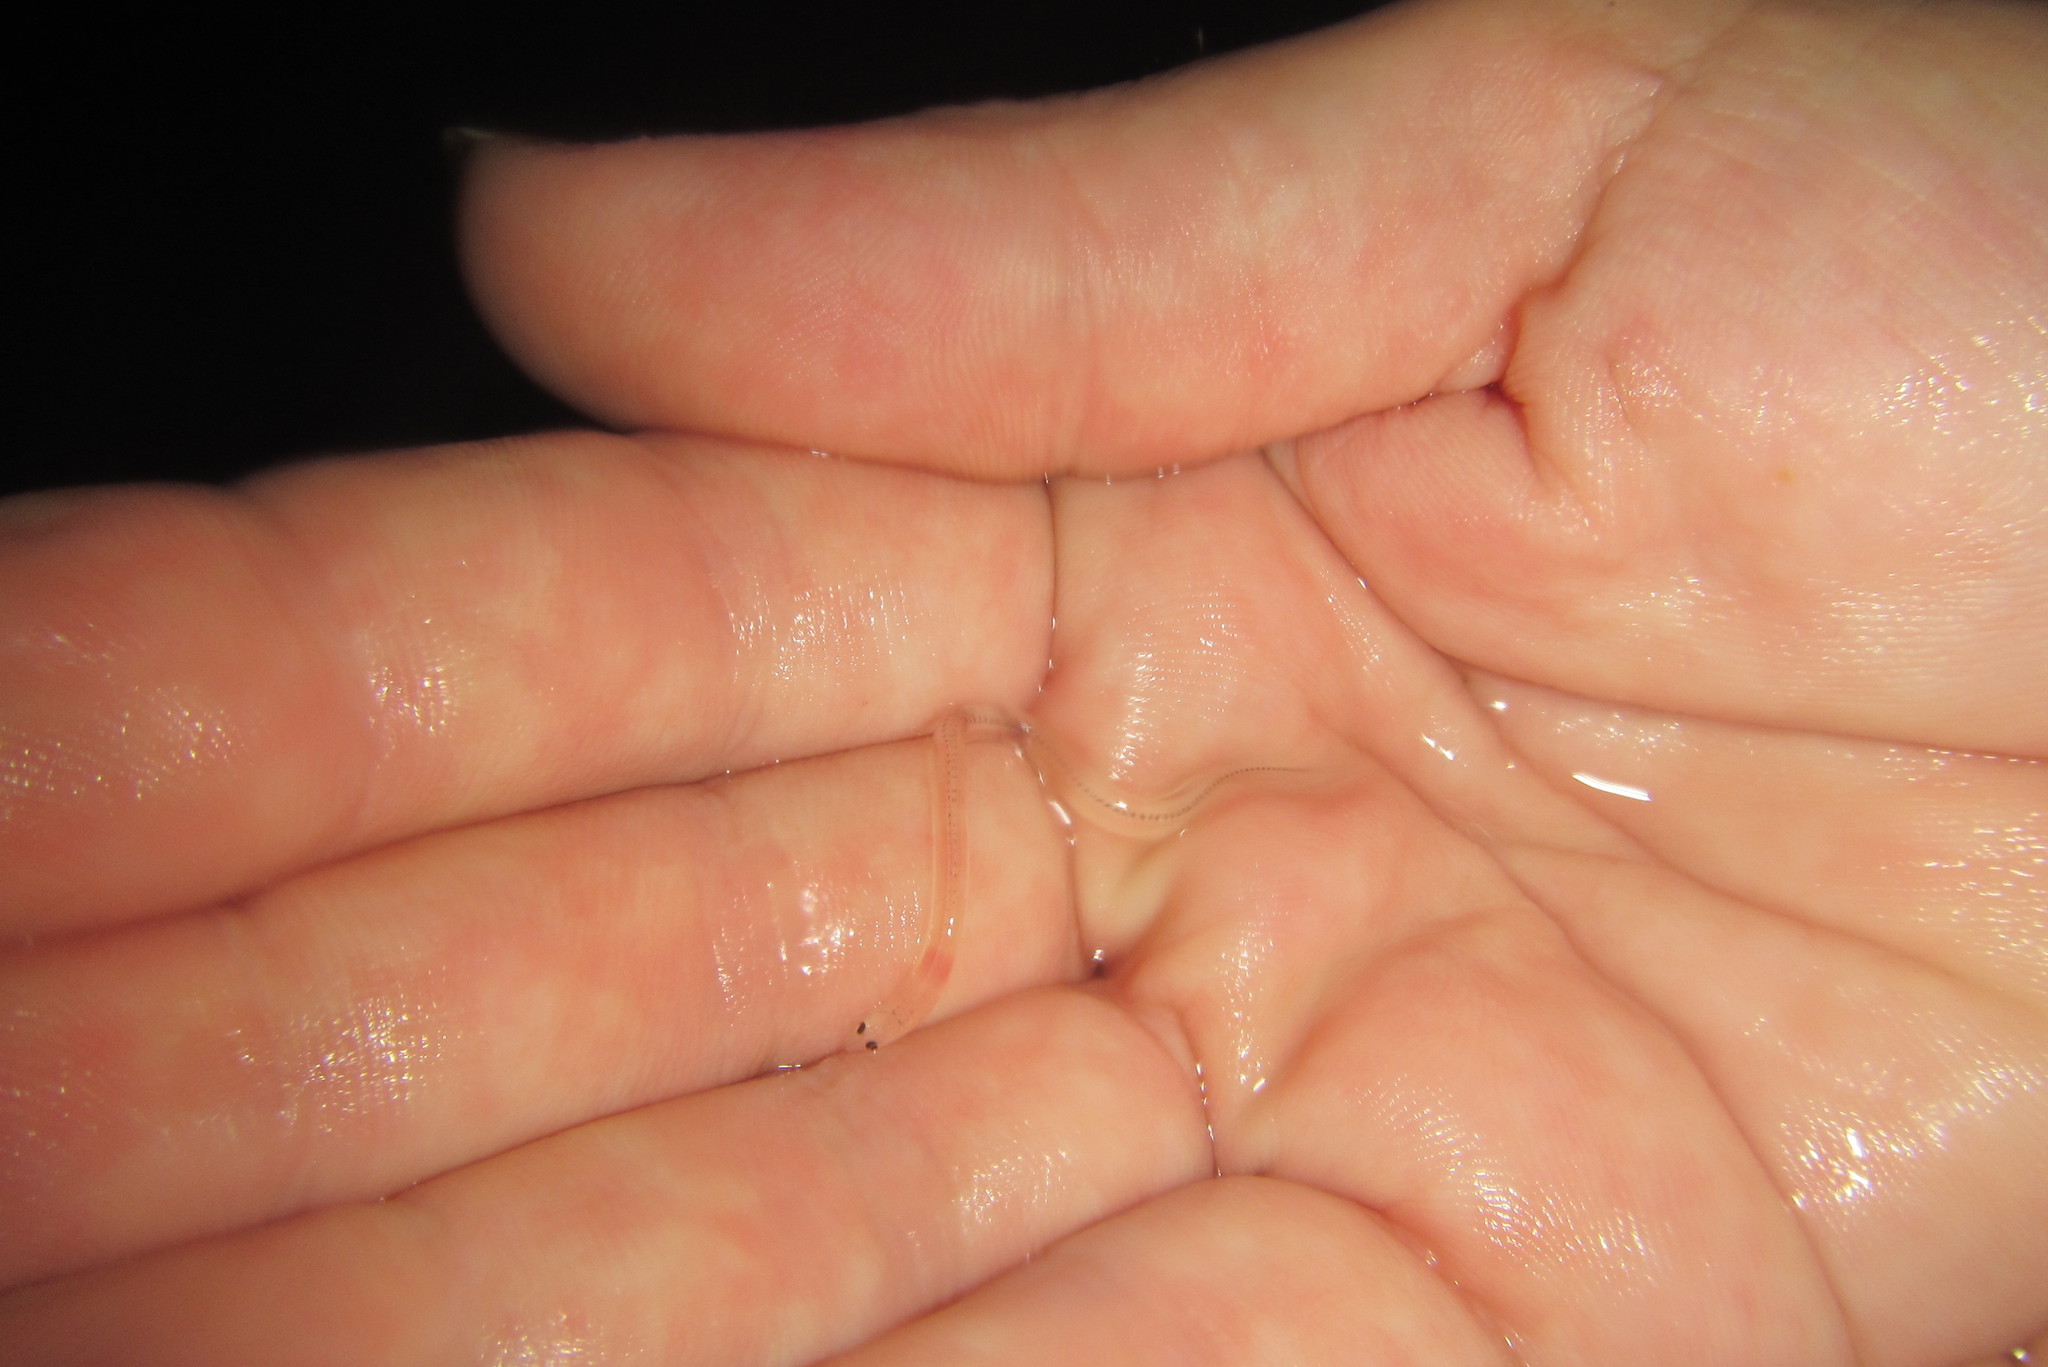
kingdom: Animalia
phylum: Chordata
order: Anguilliformes
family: Anguillidae
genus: Anguilla
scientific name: Anguilla reinhardtii
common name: Longfin eel
